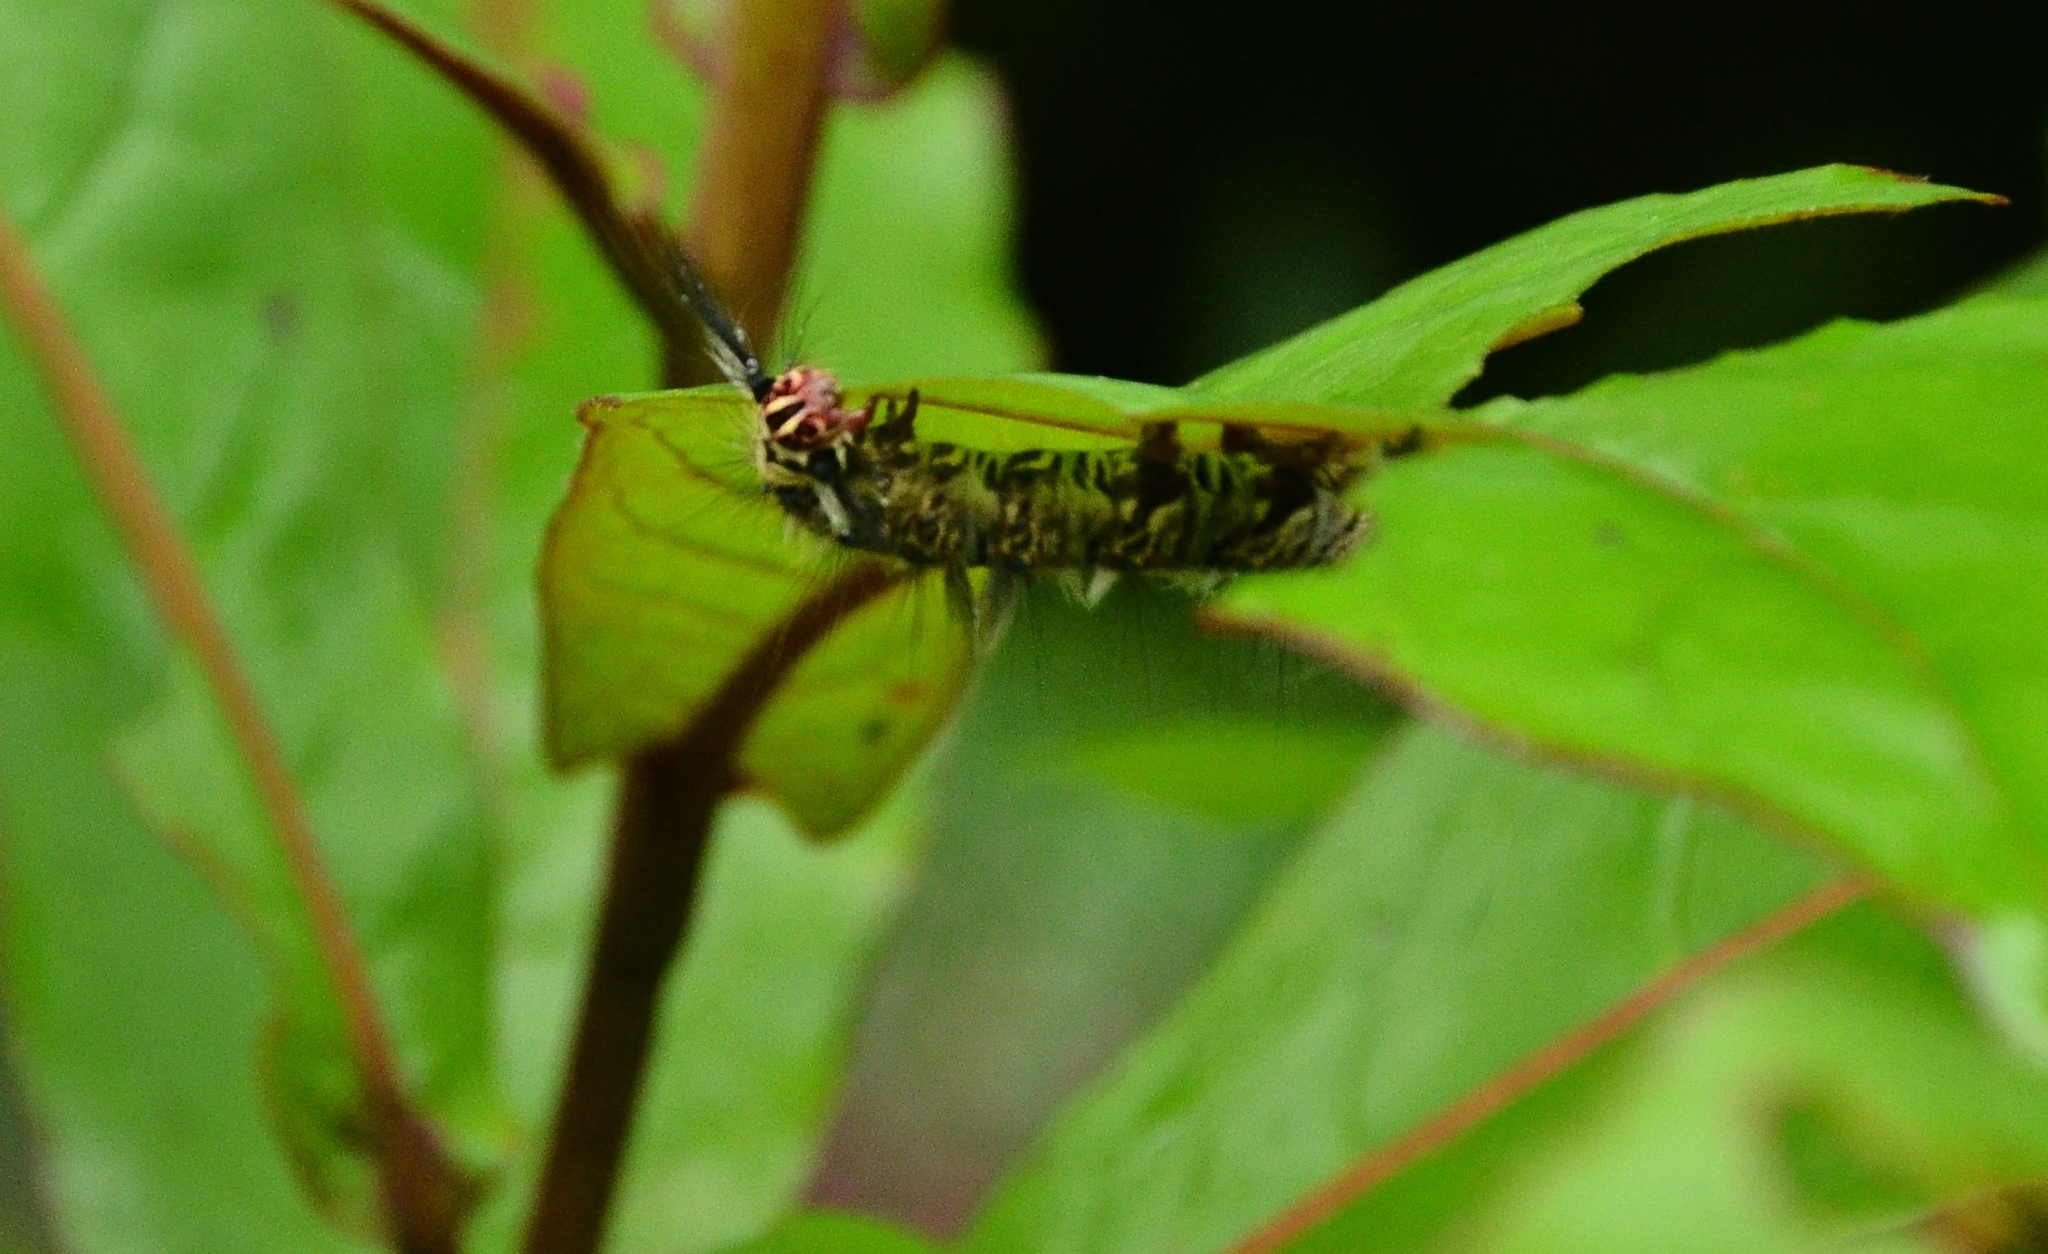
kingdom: Animalia
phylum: Arthropoda
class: Insecta
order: Lepidoptera
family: Lasiocampidae
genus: Trabala
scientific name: Trabala vishnou
